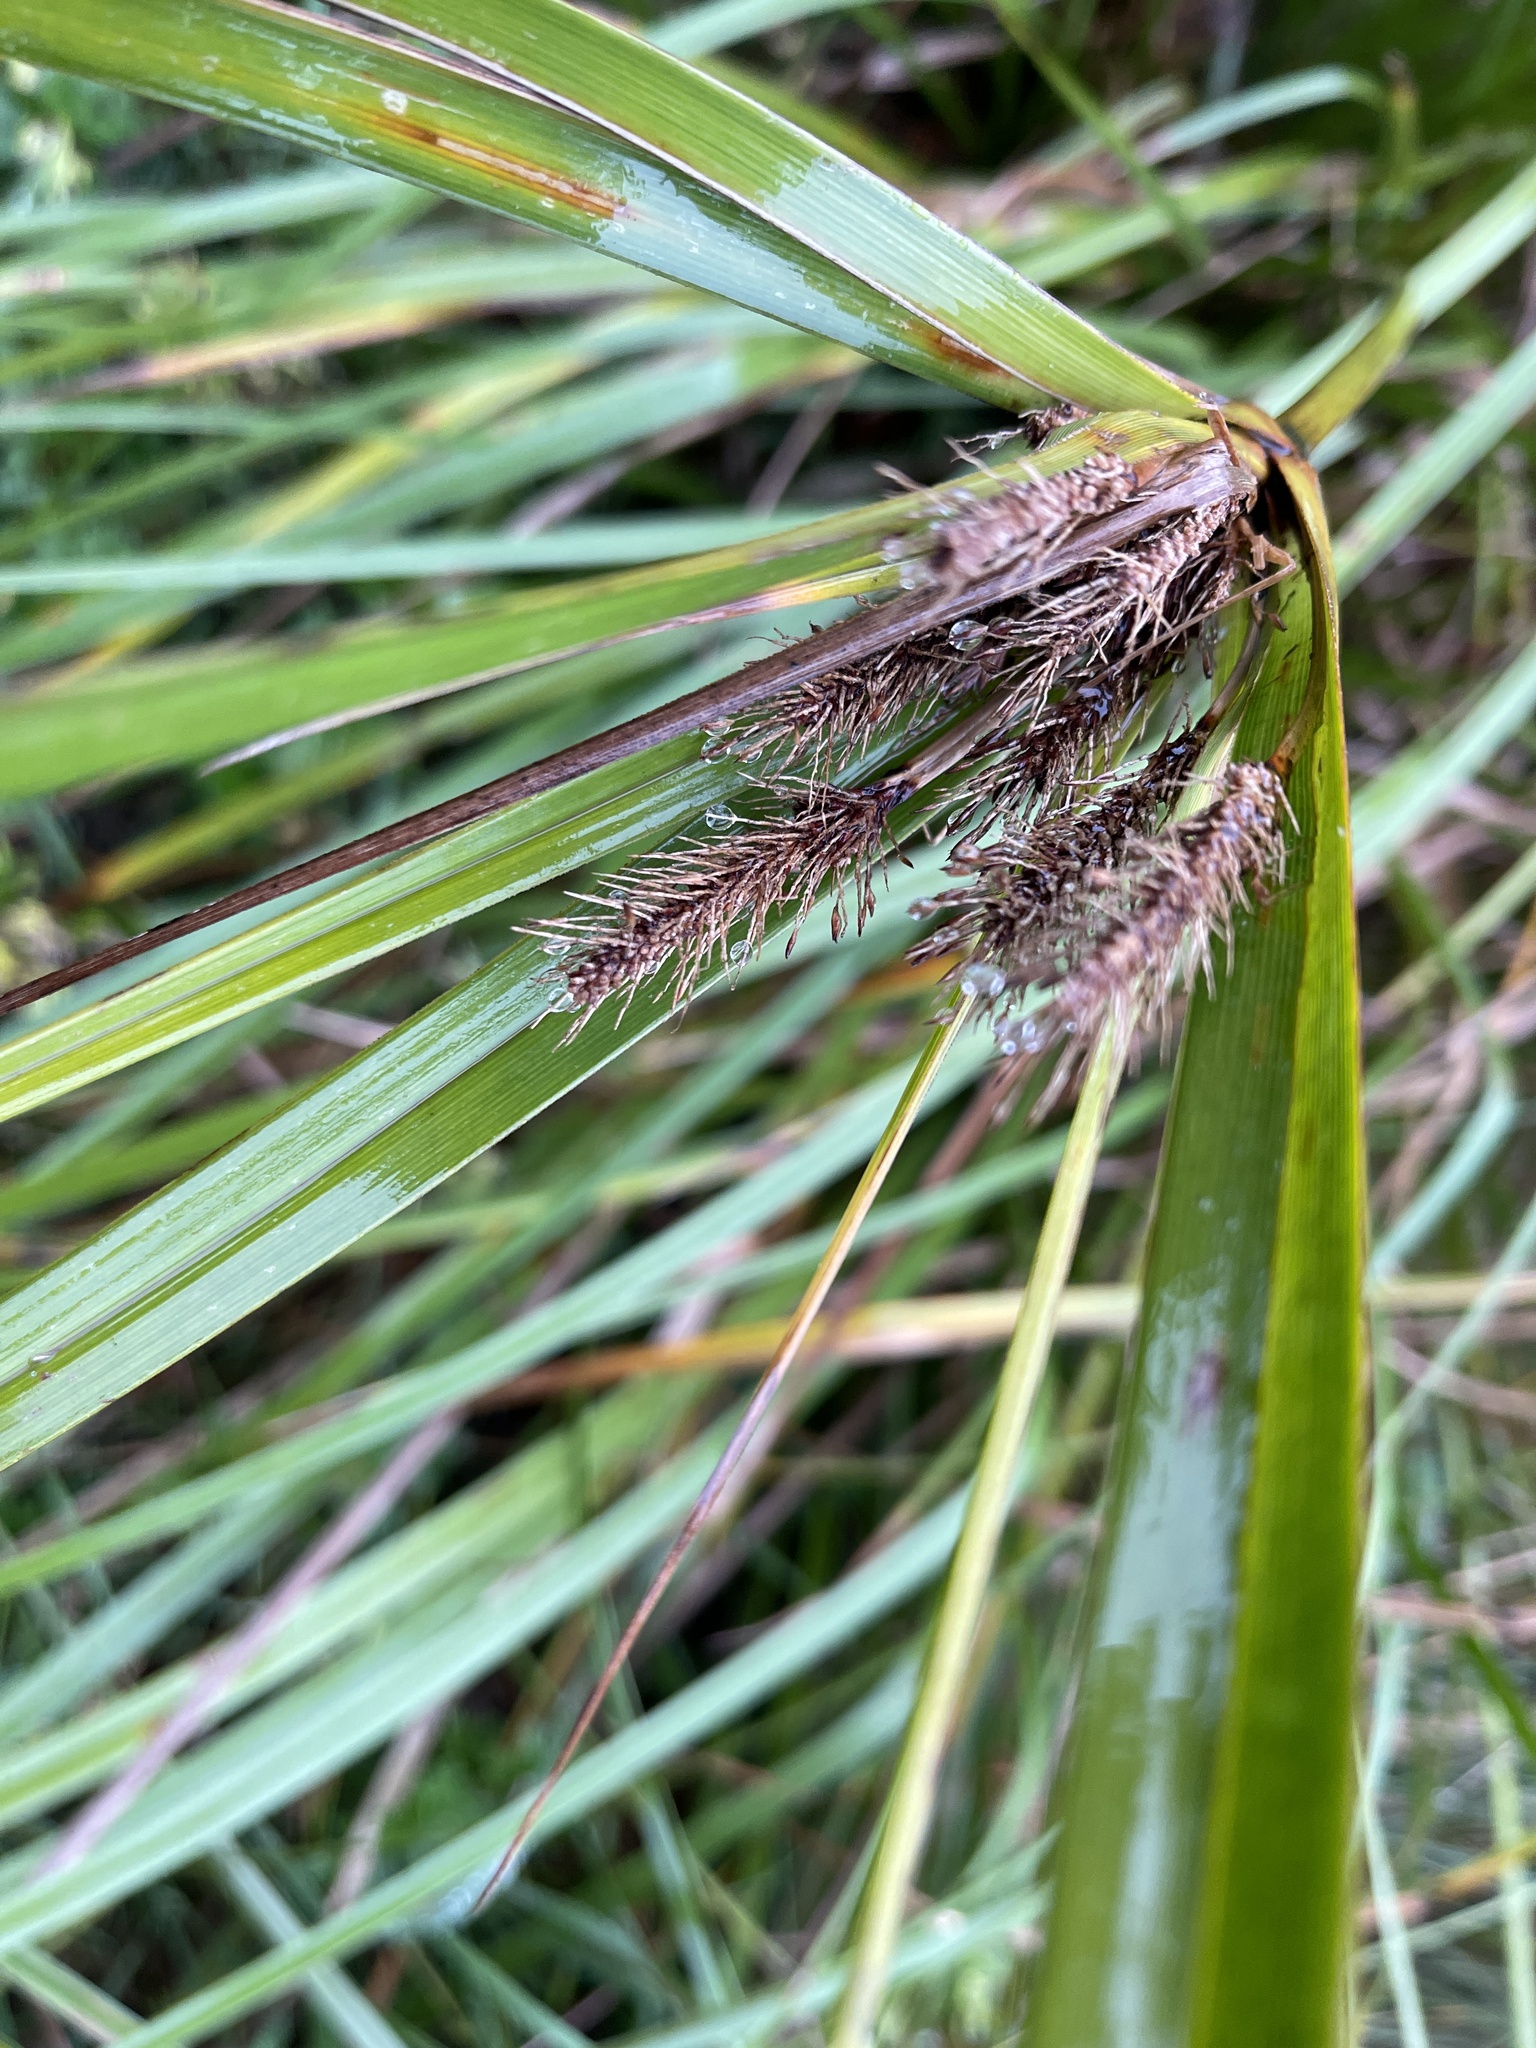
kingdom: Plantae
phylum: Tracheophyta
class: Liliopsida
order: Poales
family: Cyperaceae
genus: Cyperus
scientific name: Cyperus ustulatus
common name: Giant umbrella-sedge
